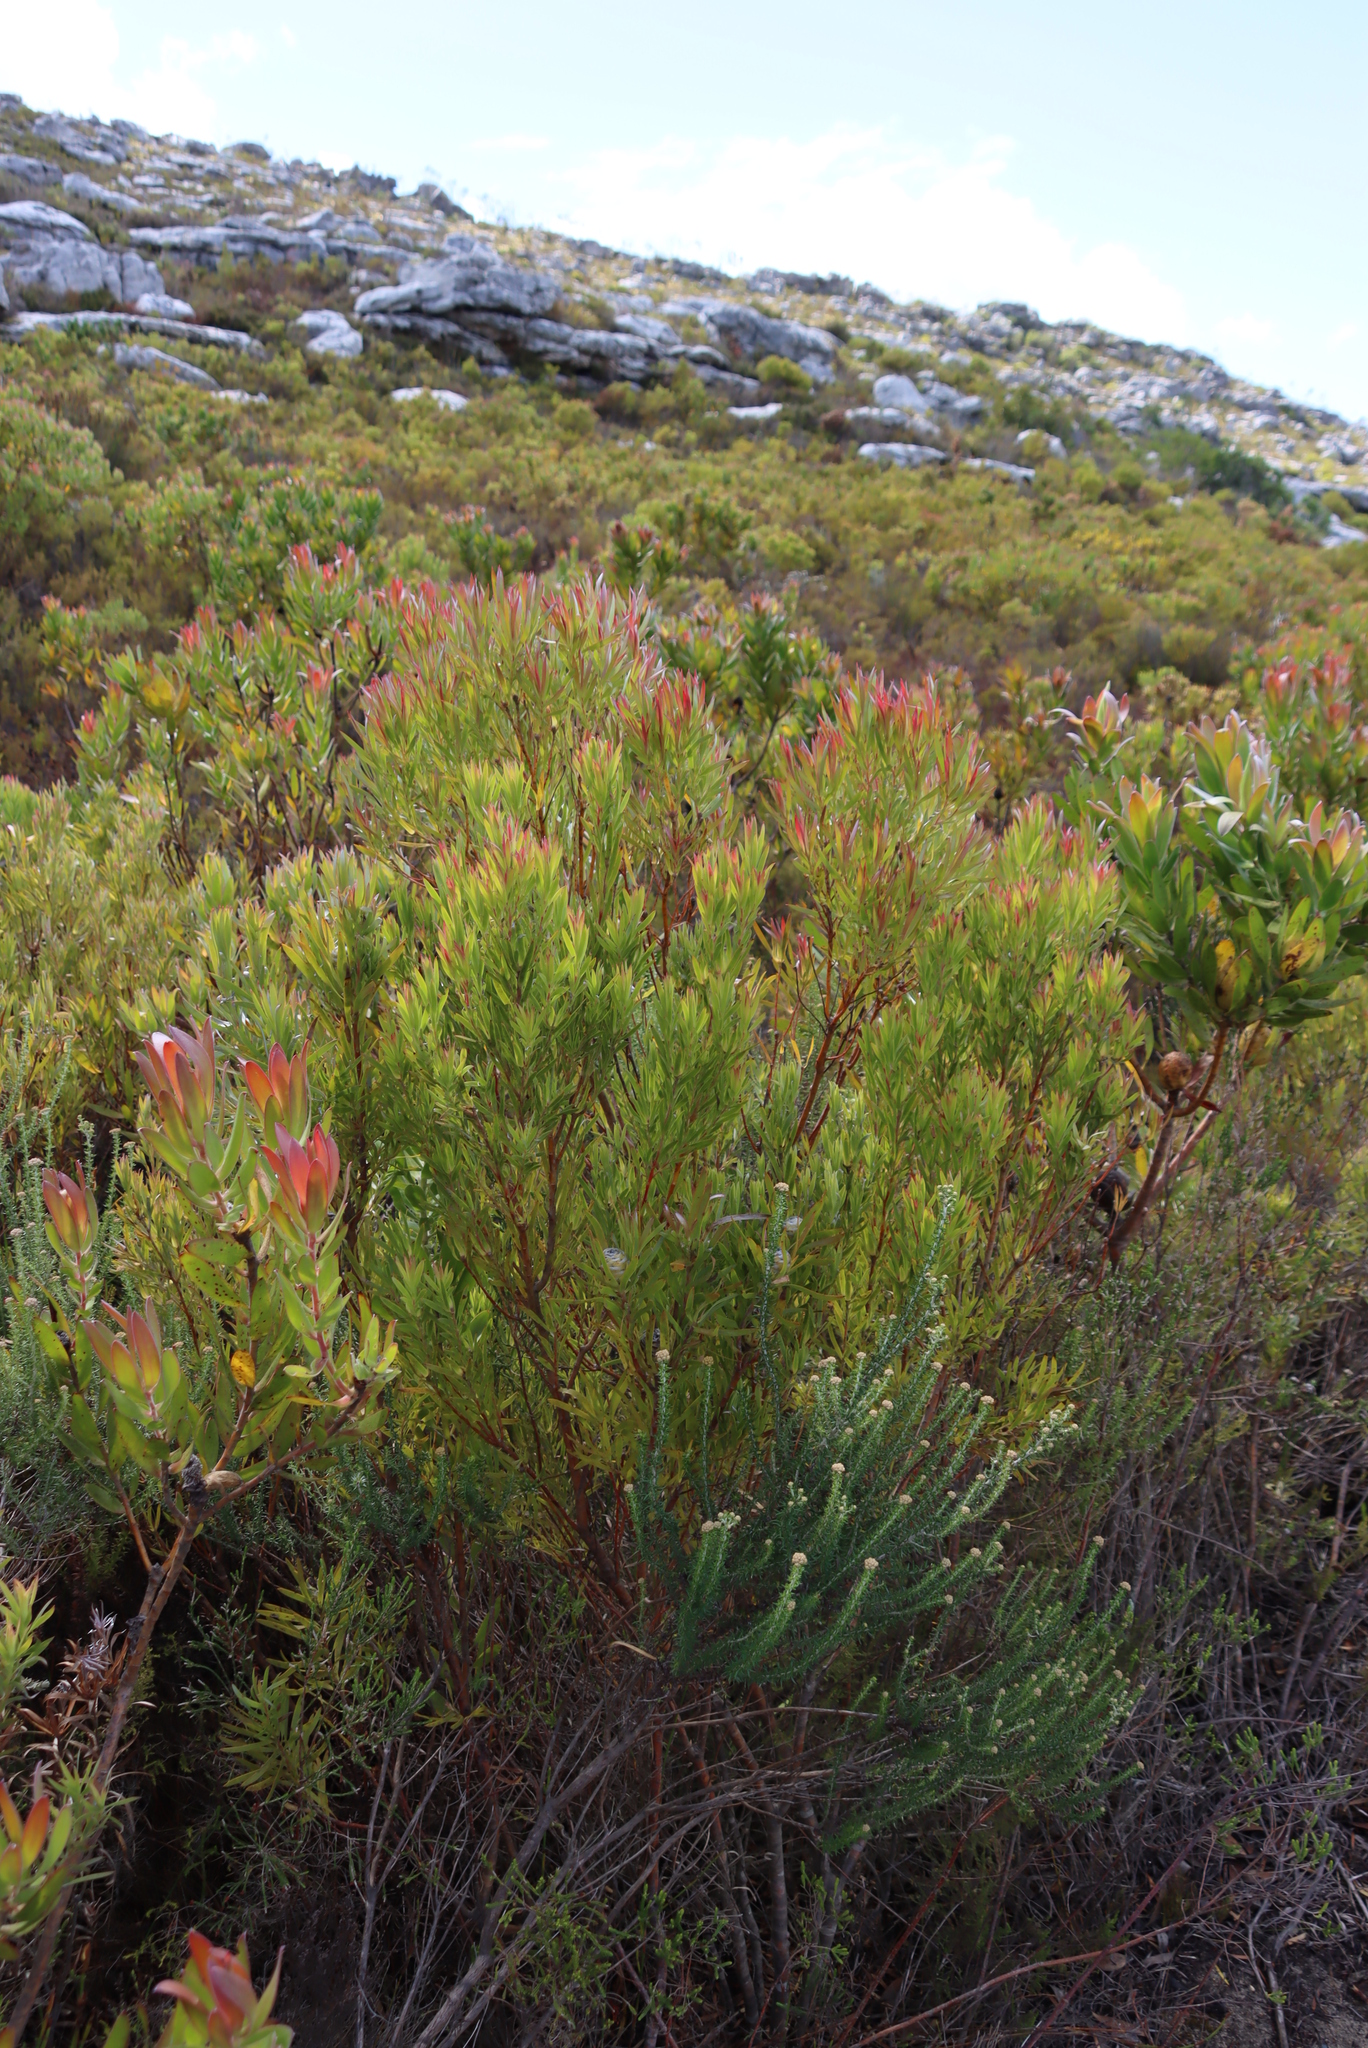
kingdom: Plantae
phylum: Tracheophyta
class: Magnoliopsida
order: Proteales
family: Proteaceae
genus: Leucadendron
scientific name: Leucadendron xanthoconus
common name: Sickle-leaf conebush
